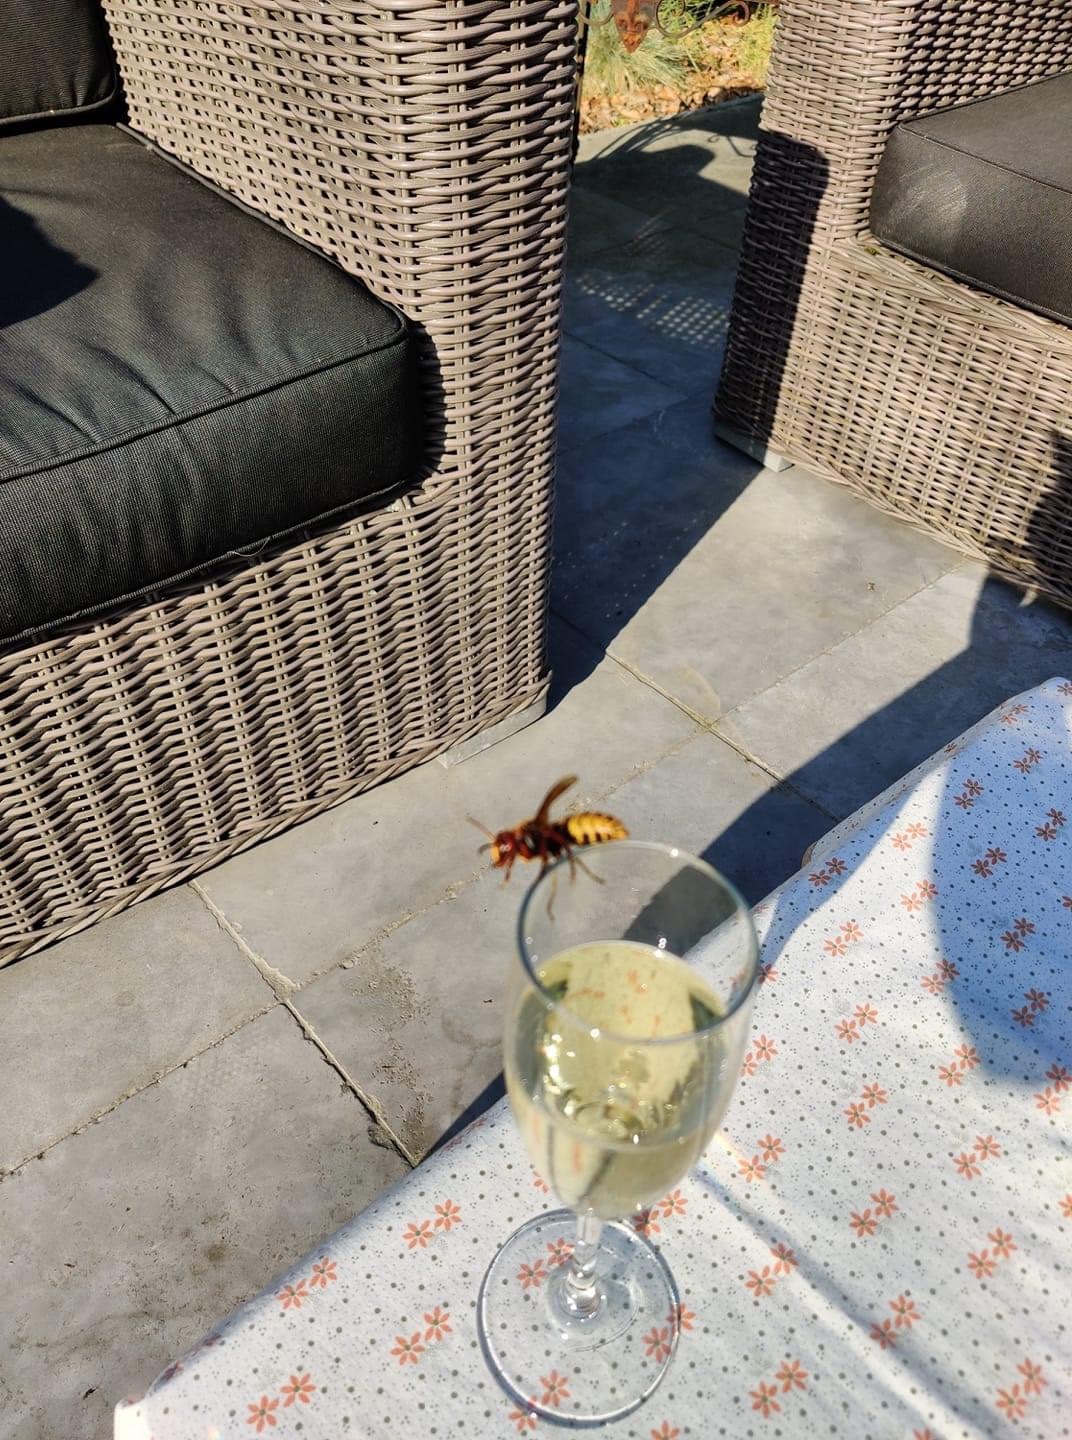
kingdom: Animalia
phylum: Arthropoda
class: Insecta
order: Hymenoptera
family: Vespidae
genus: Vespa
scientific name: Vespa crabro
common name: Hornet
